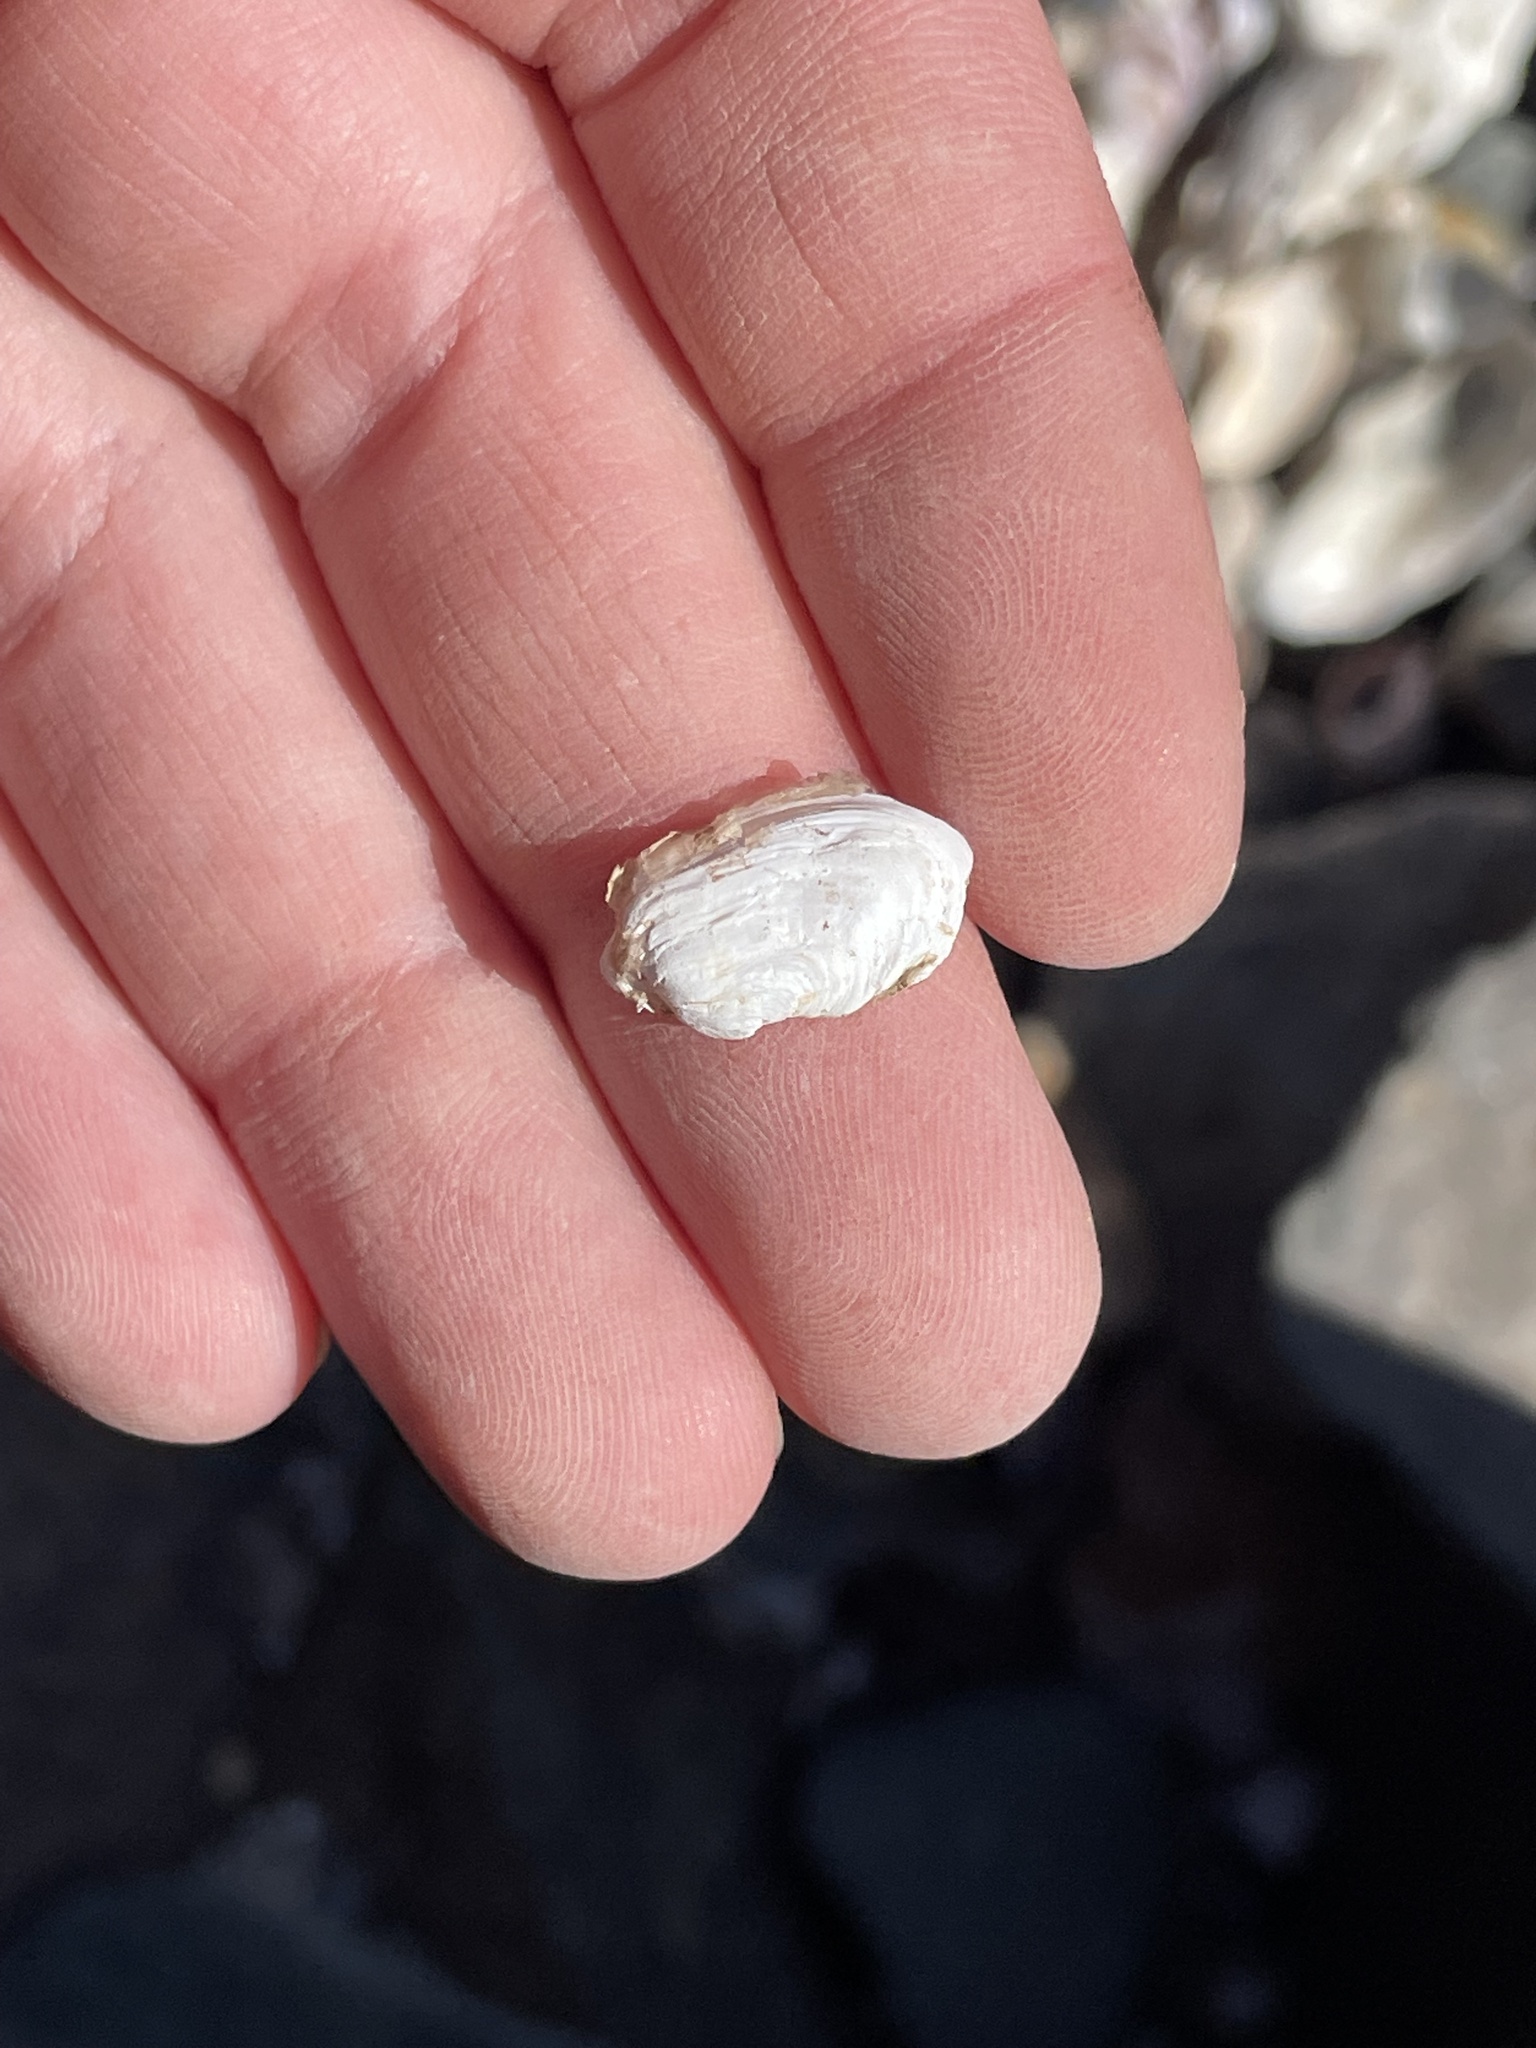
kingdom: Animalia
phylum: Mollusca
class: Bivalvia
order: Adapedonta
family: Hiatellidae
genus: Hiatella
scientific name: Hiatella arctica
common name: Arctic hiatella
